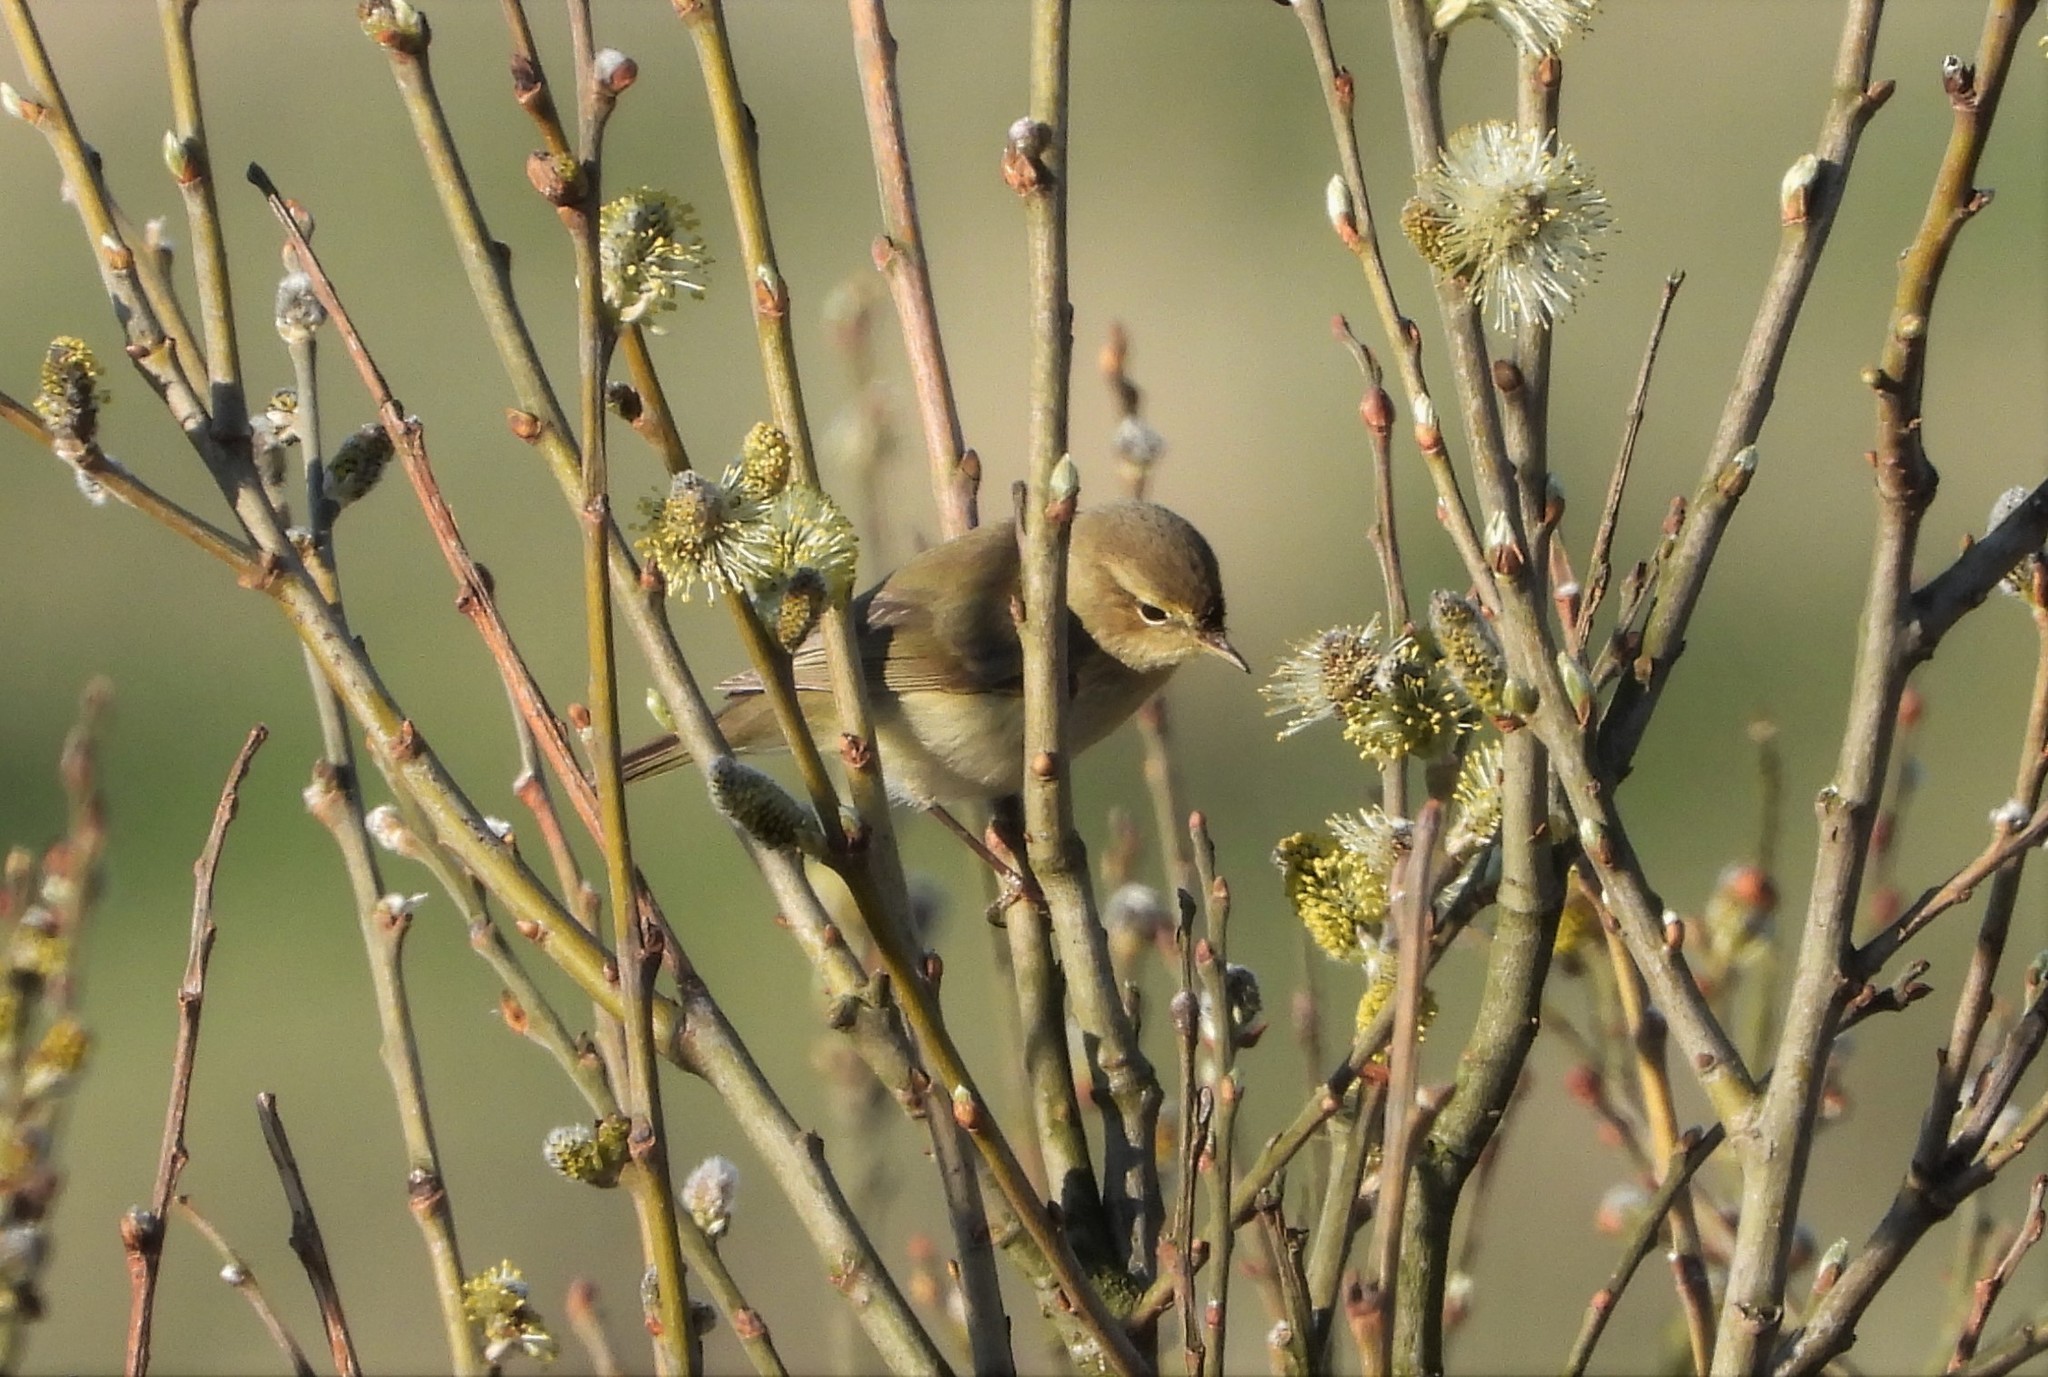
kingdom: Animalia
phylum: Chordata
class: Aves
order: Passeriformes
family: Phylloscopidae
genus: Phylloscopus
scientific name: Phylloscopus trochilus
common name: Willow warbler
